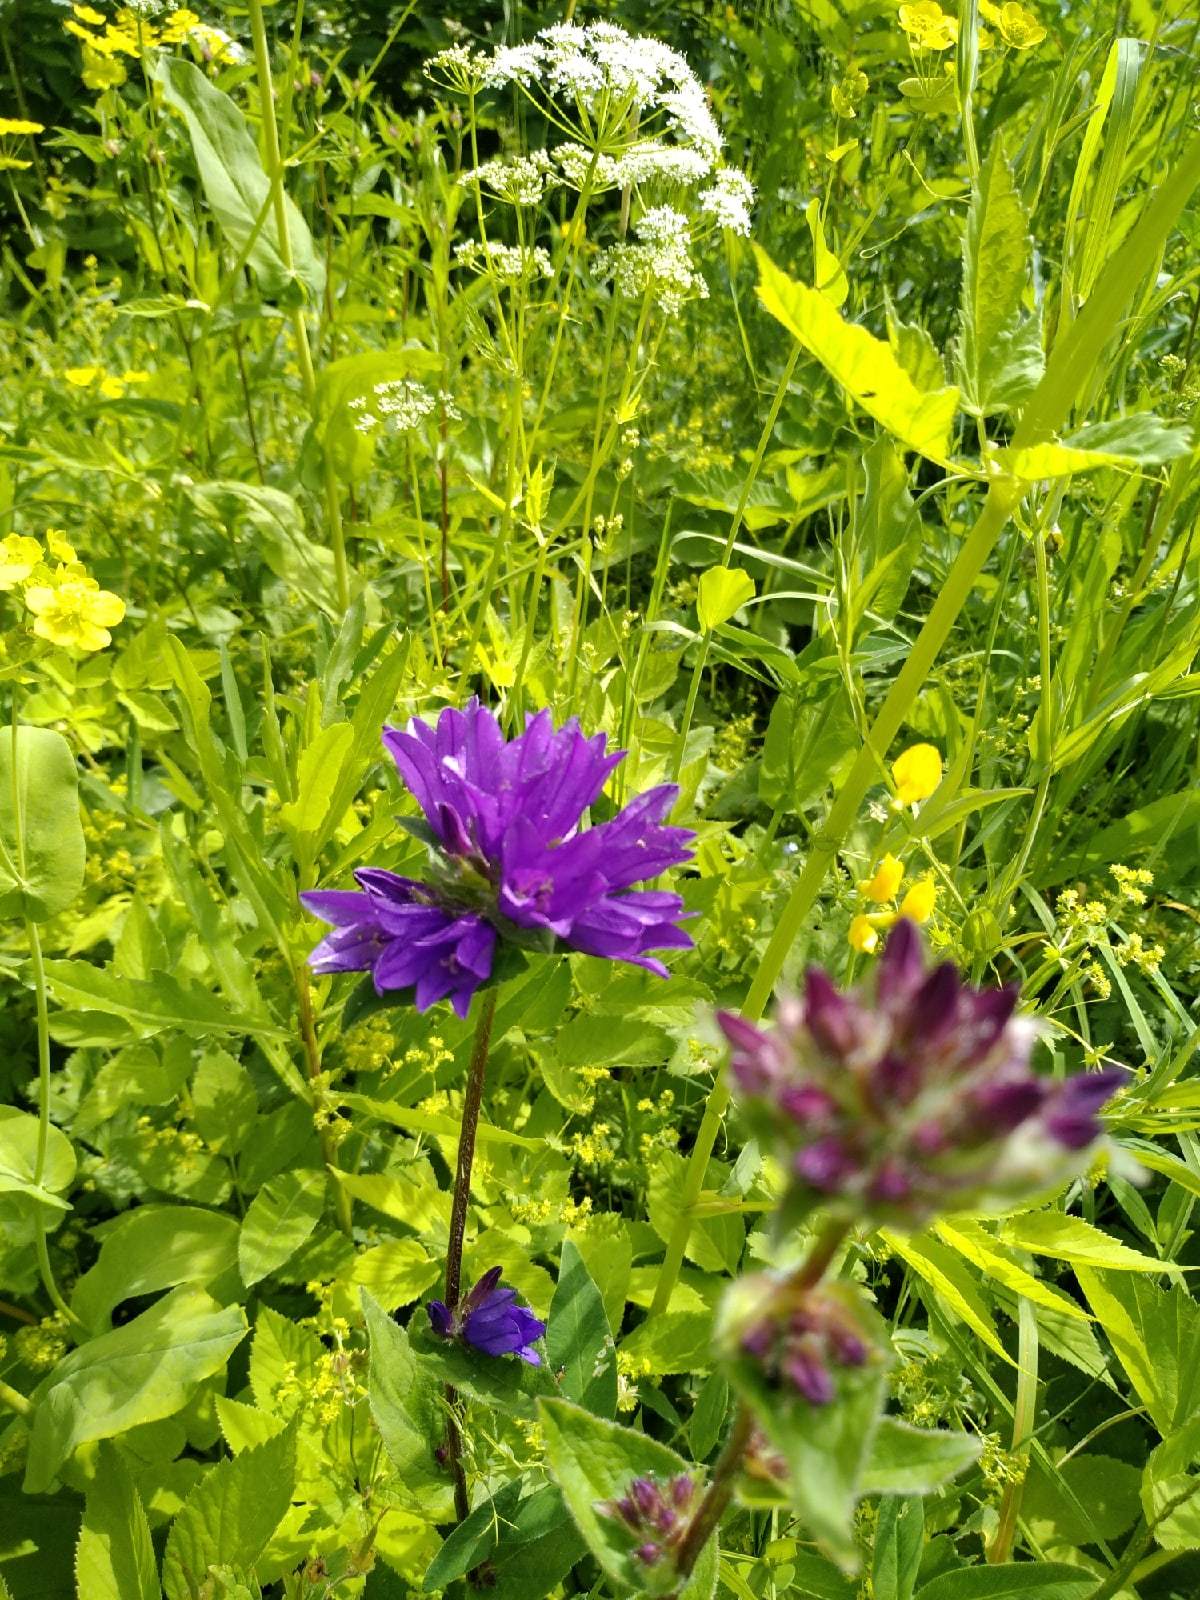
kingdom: Plantae
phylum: Tracheophyta
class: Magnoliopsida
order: Asterales
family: Campanulaceae
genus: Campanula
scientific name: Campanula glomerata
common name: Clustered bellflower
